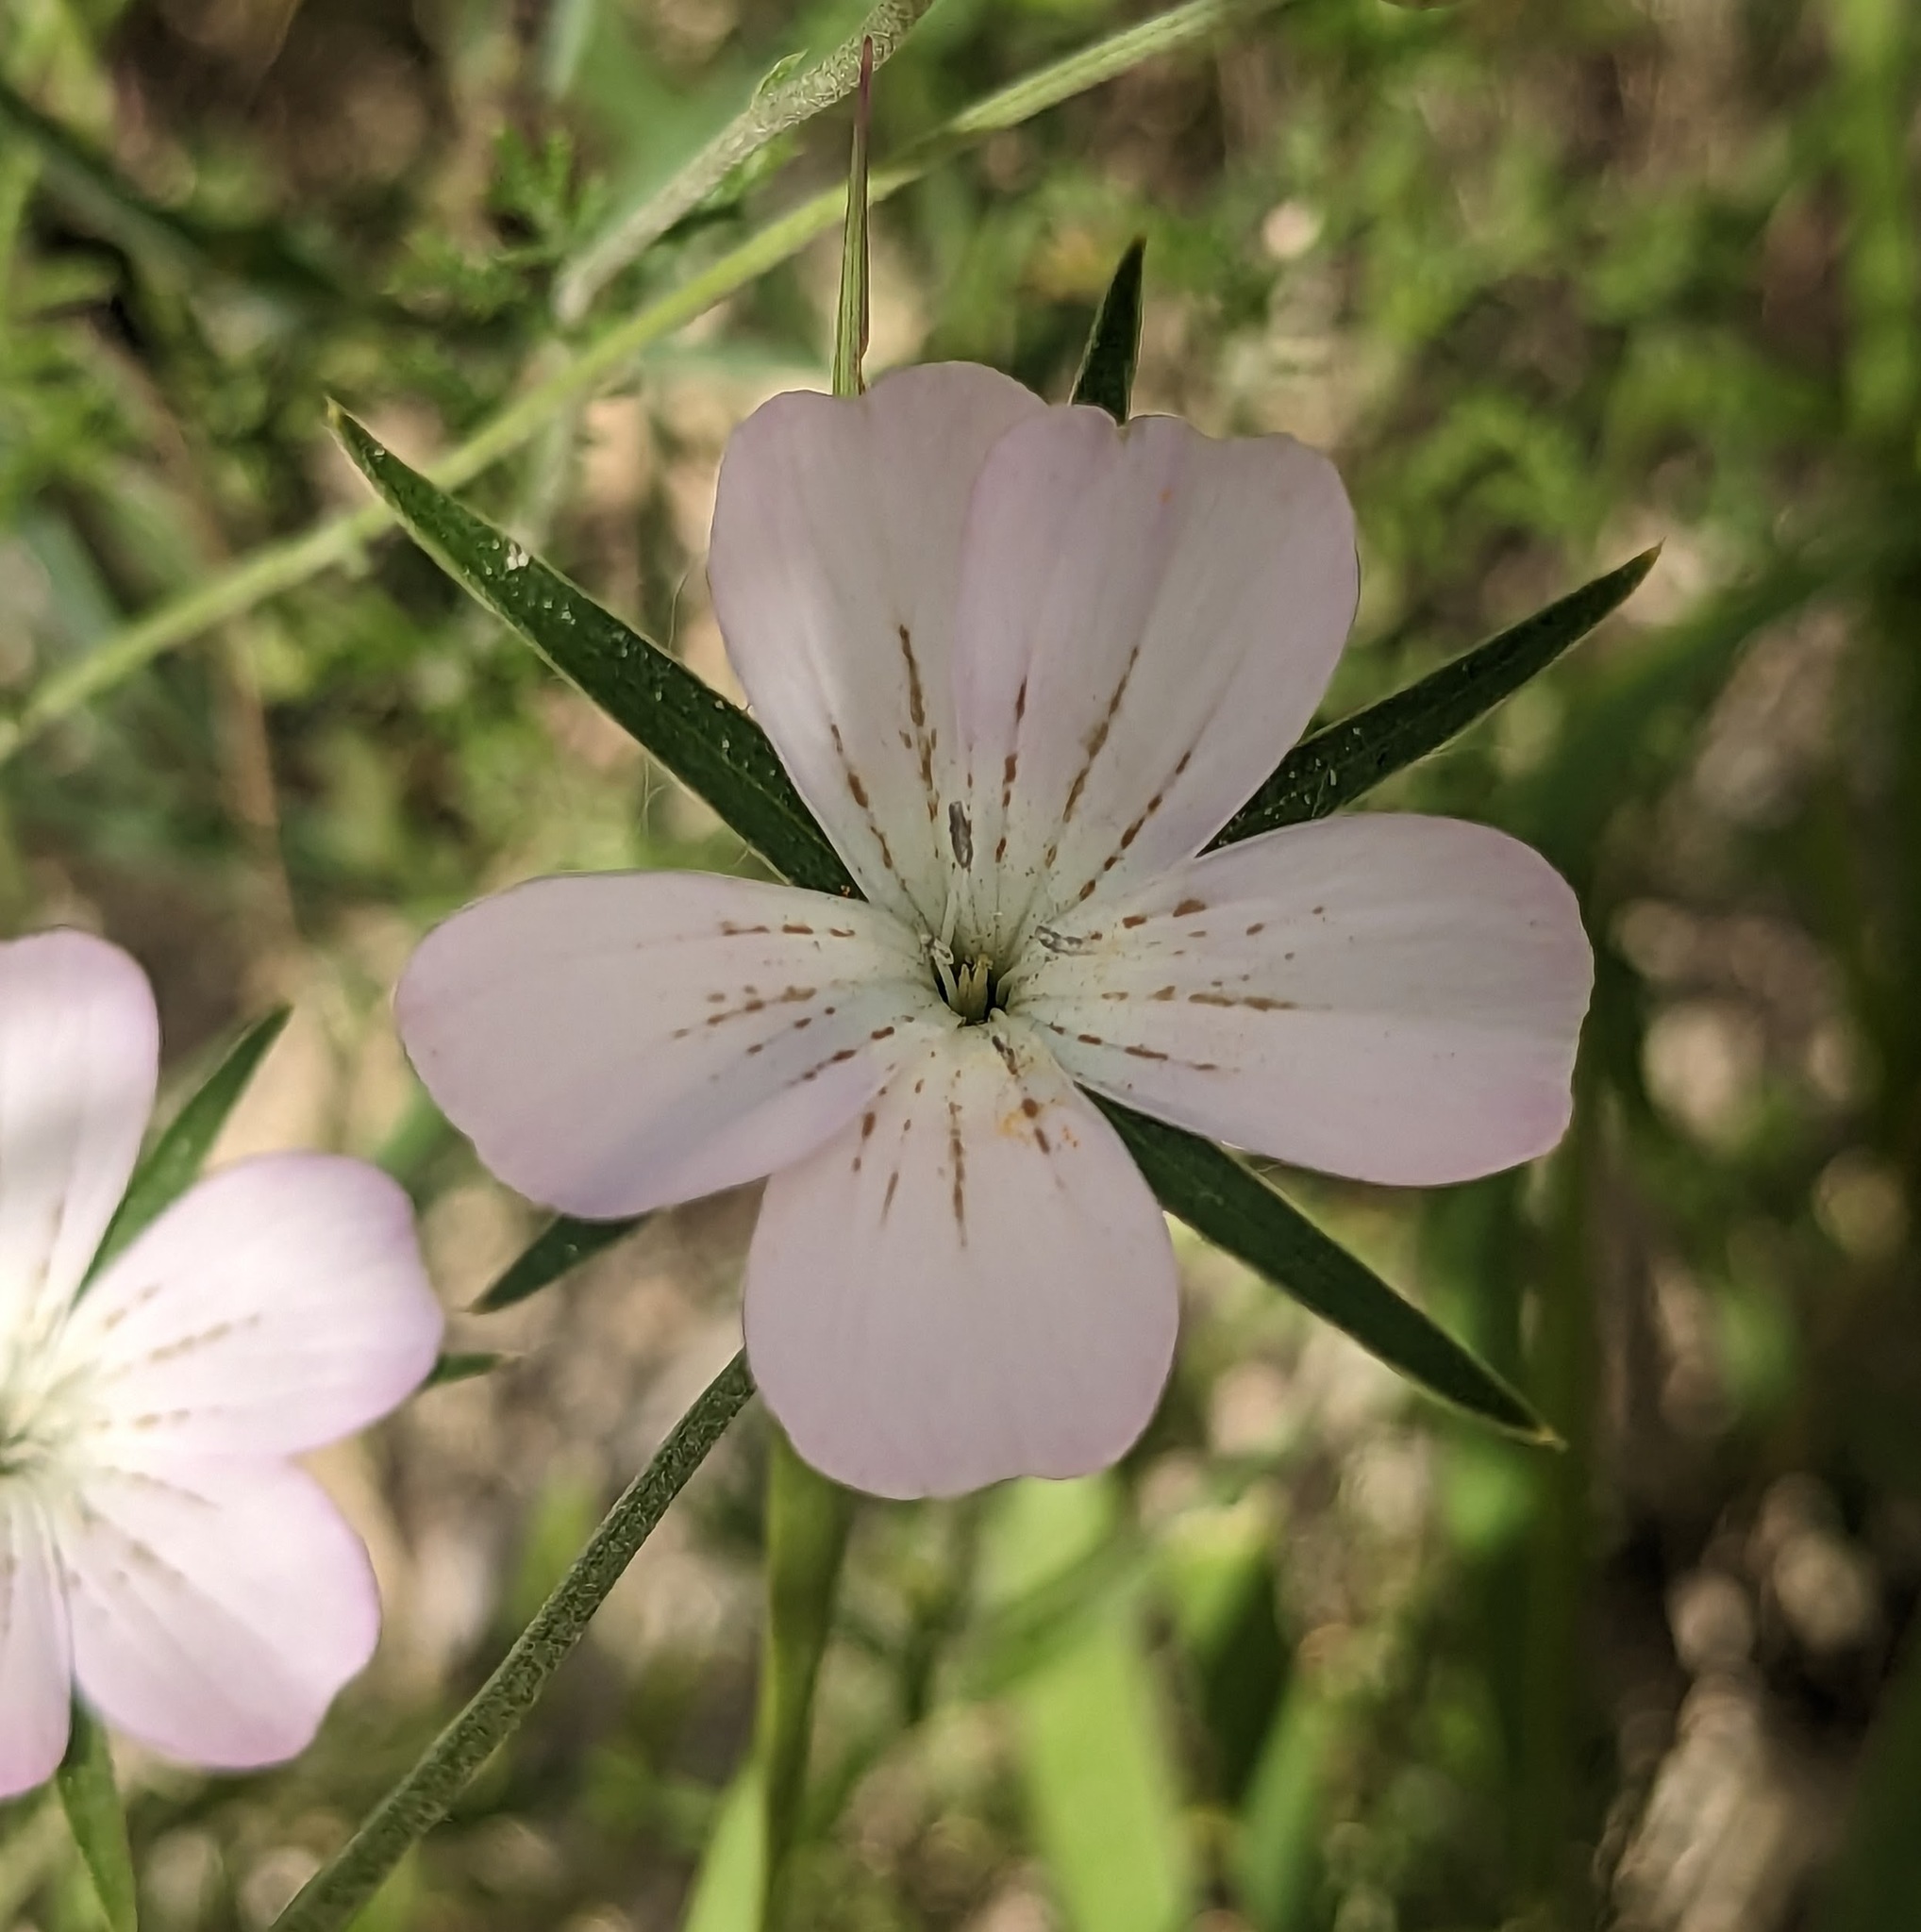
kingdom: Plantae
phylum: Tracheophyta
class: Magnoliopsida
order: Caryophyllales
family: Caryophyllaceae
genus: Agrostemma
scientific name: Agrostemma githago
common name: Common corncockle
